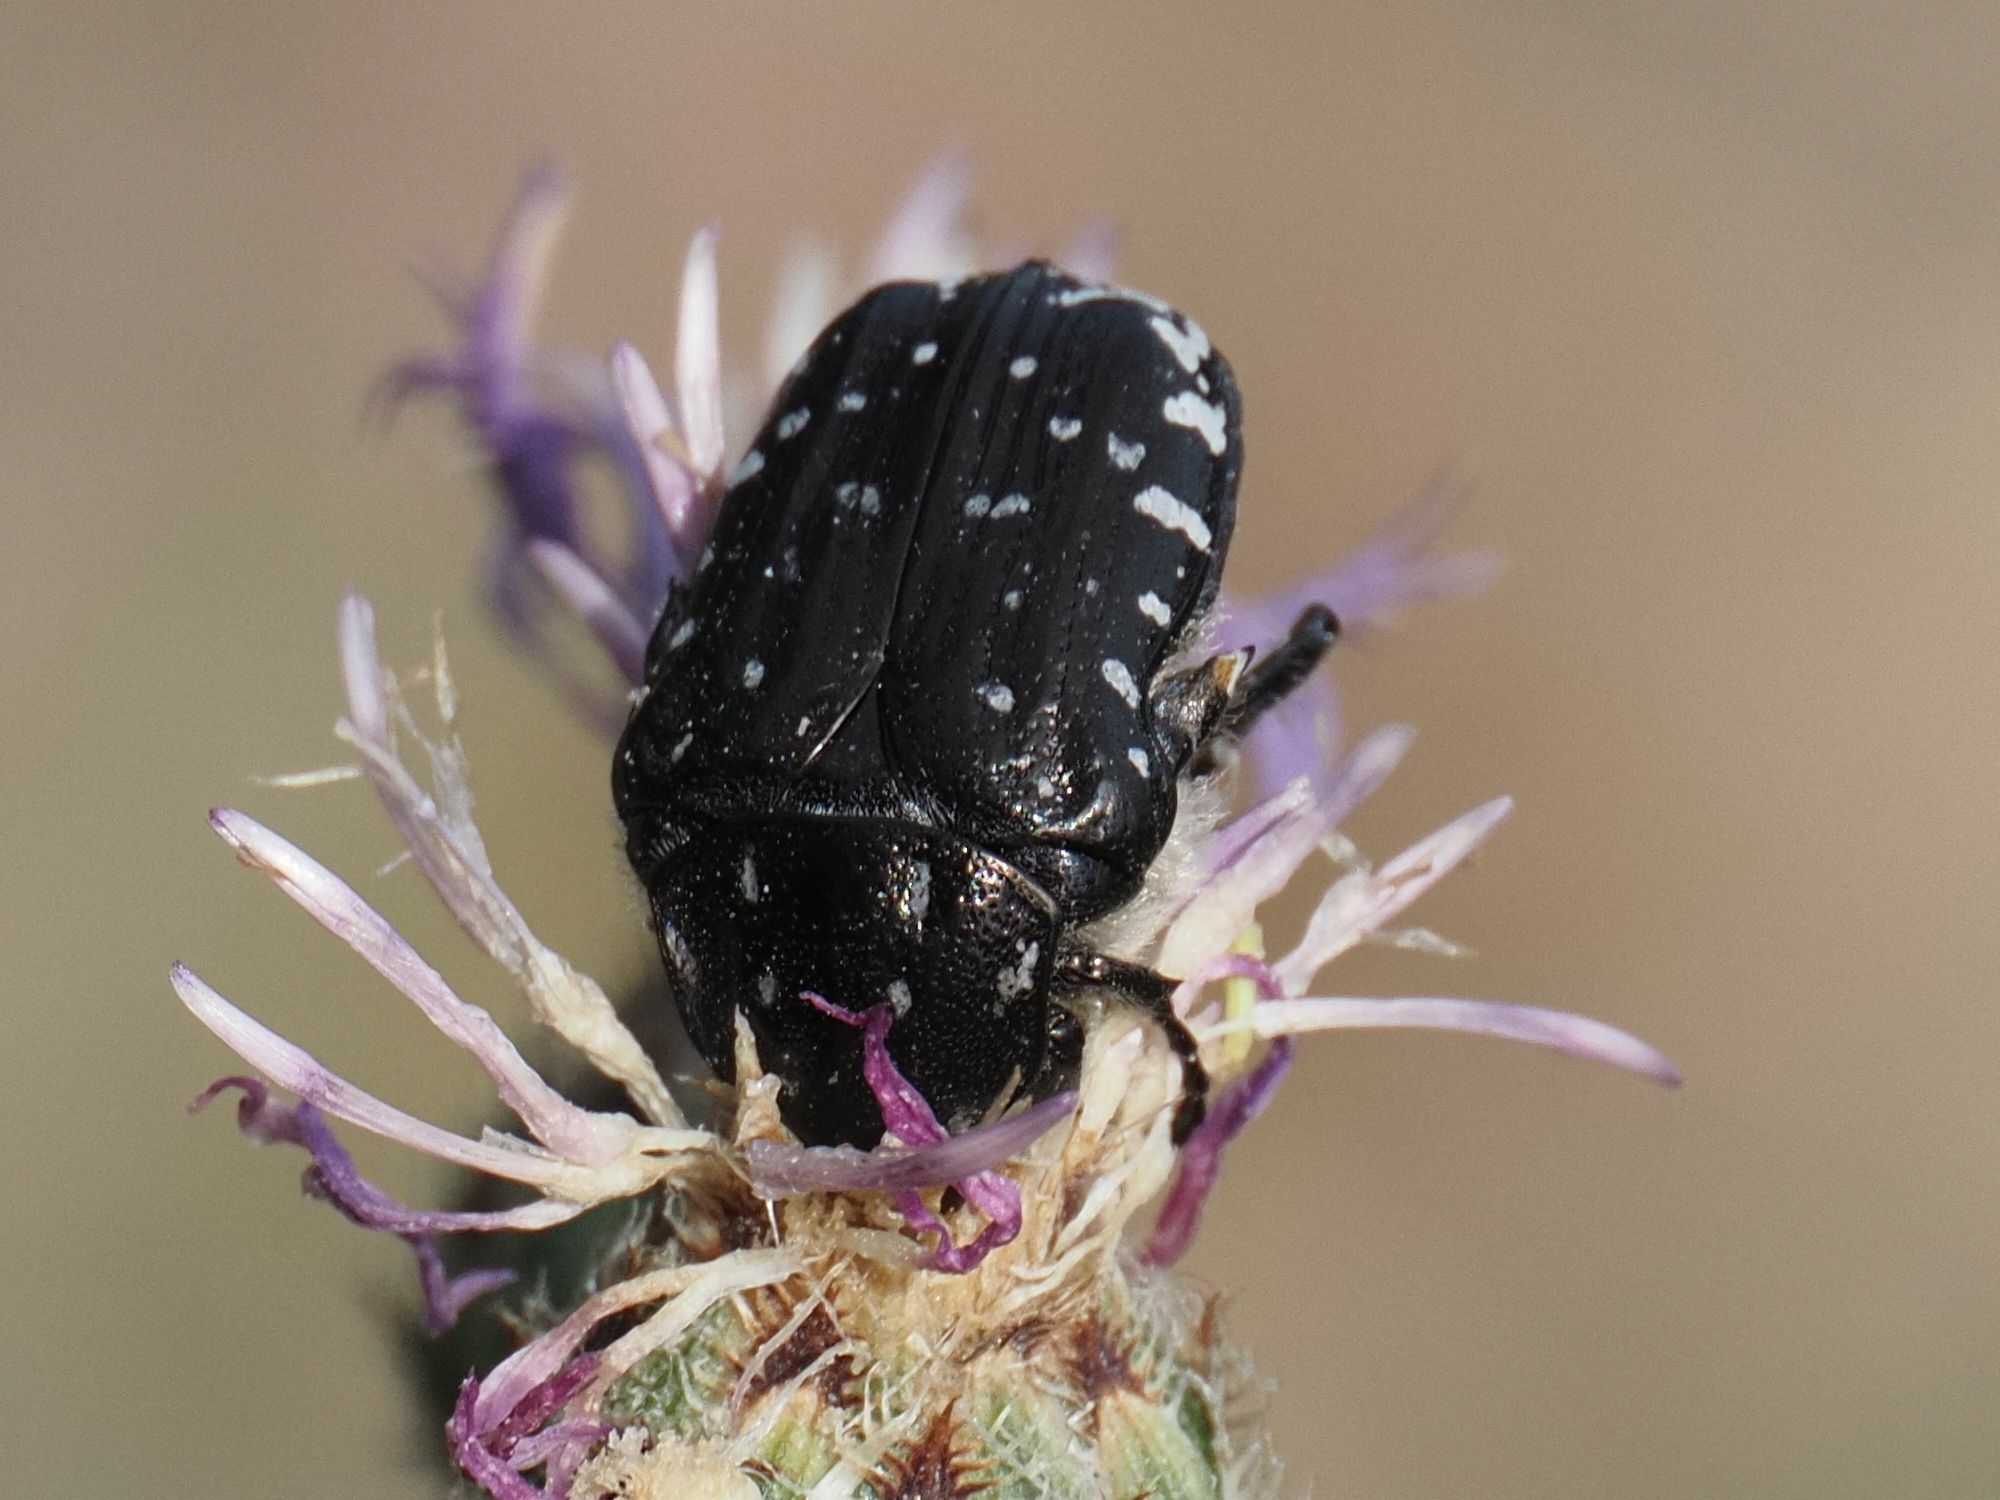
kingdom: Animalia
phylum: Arthropoda
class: Insecta
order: Coleoptera
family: Scarabaeidae
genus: Oxythyrea
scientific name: Oxythyrea funesta
